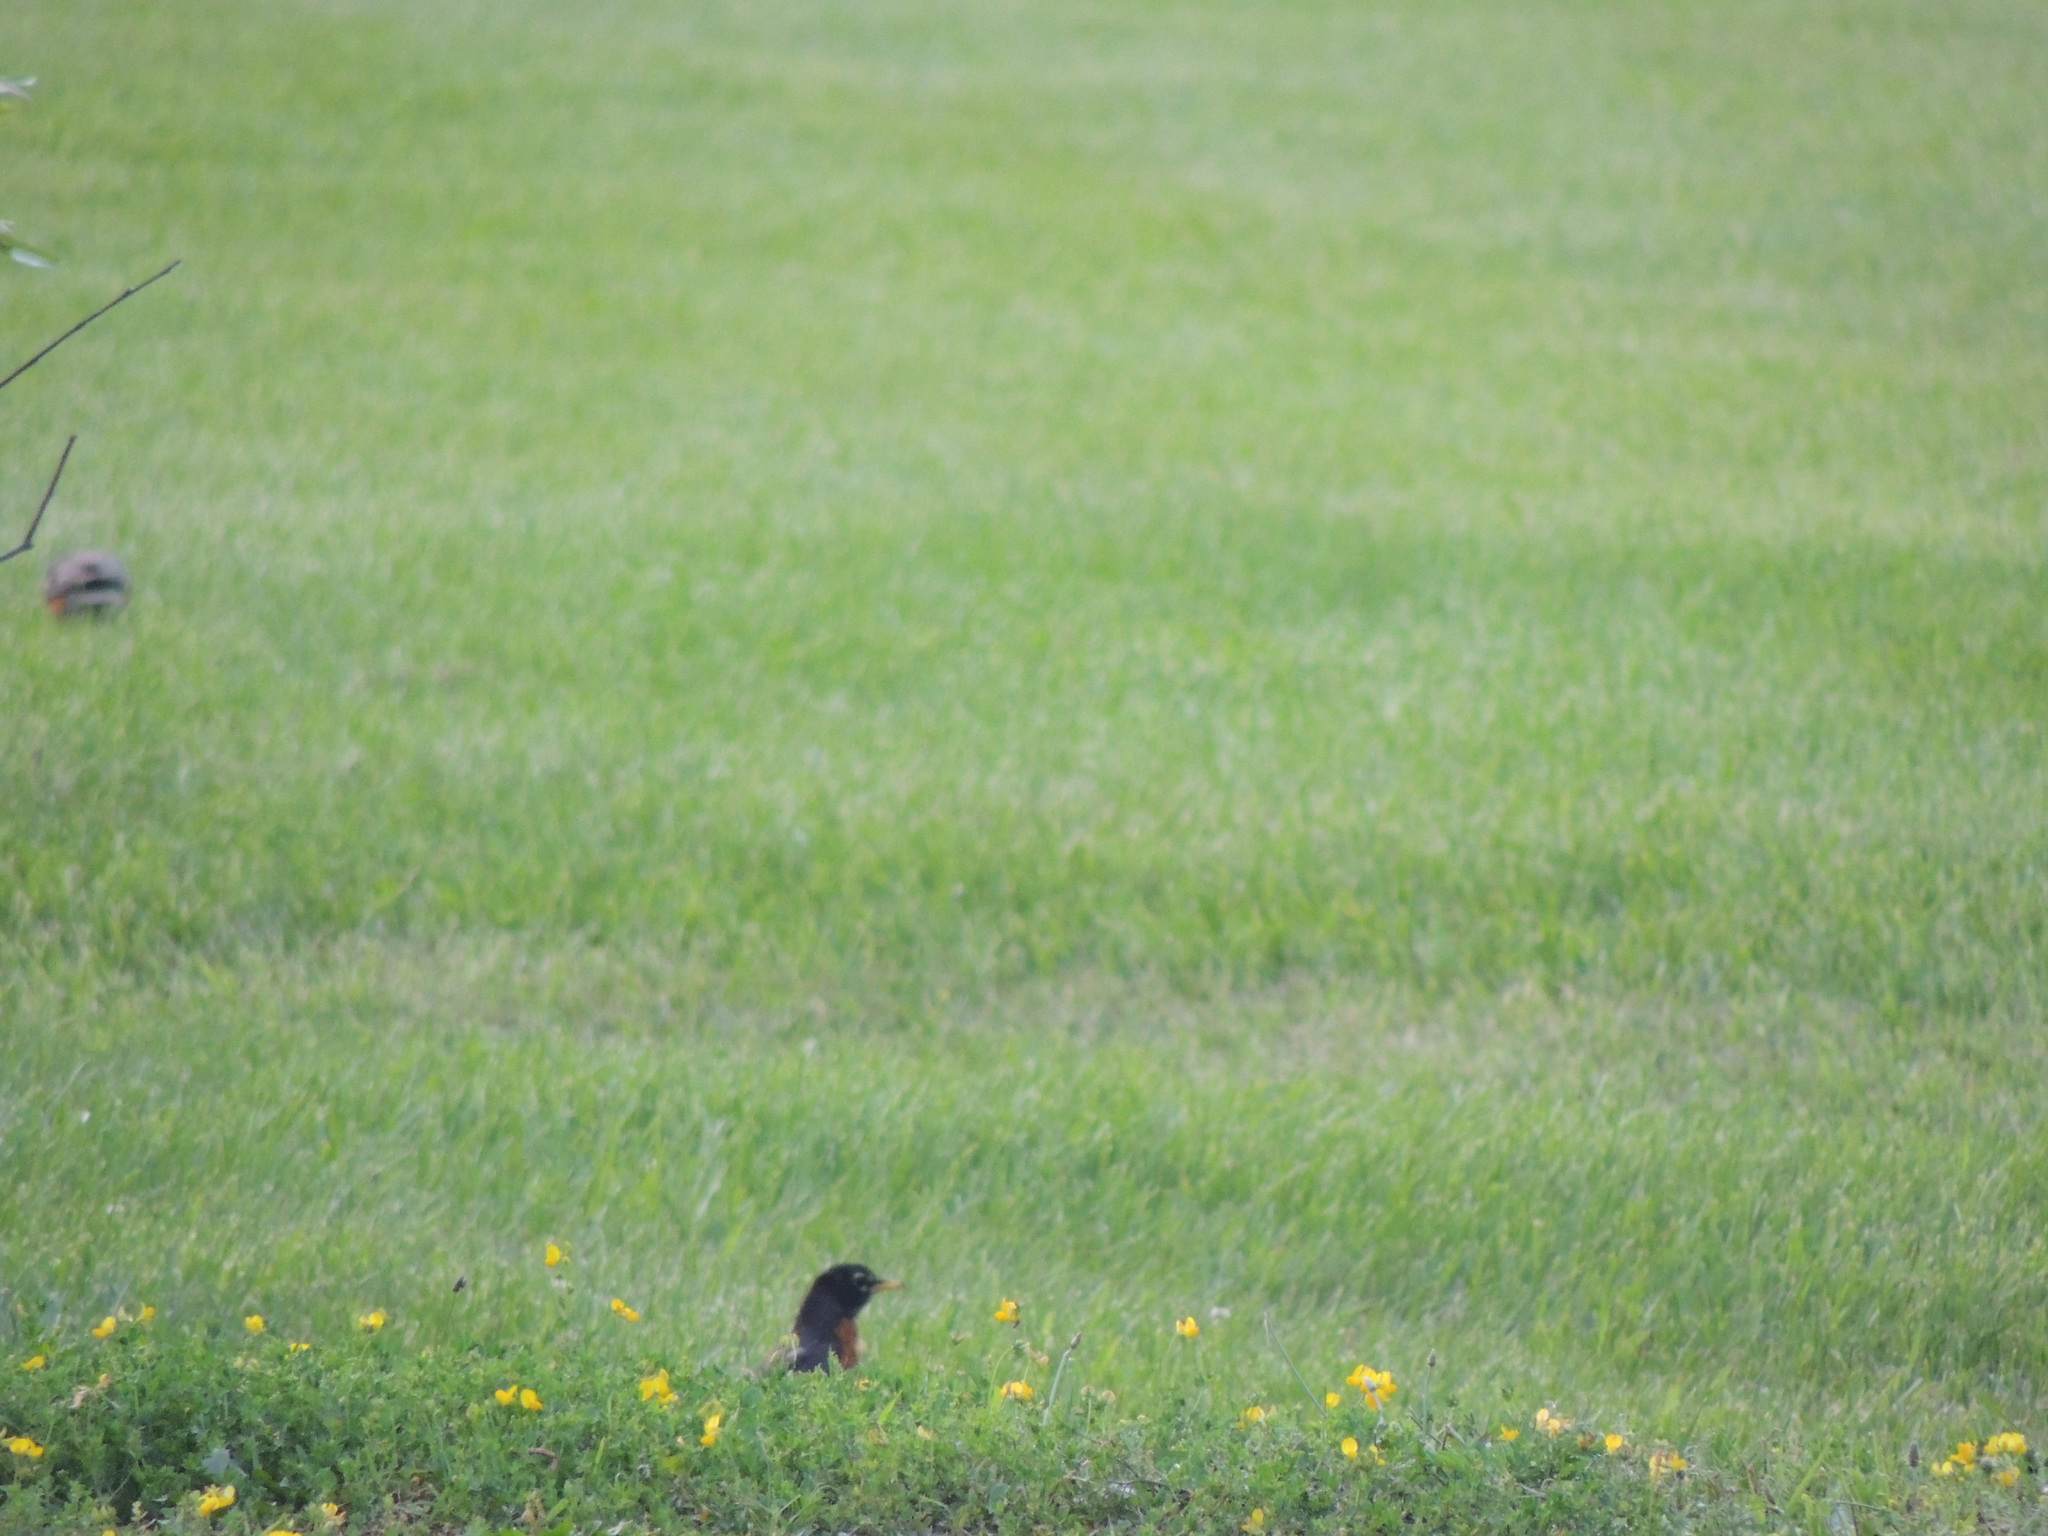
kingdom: Animalia
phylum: Chordata
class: Aves
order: Passeriformes
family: Turdidae
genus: Turdus
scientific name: Turdus migratorius
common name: American robin
